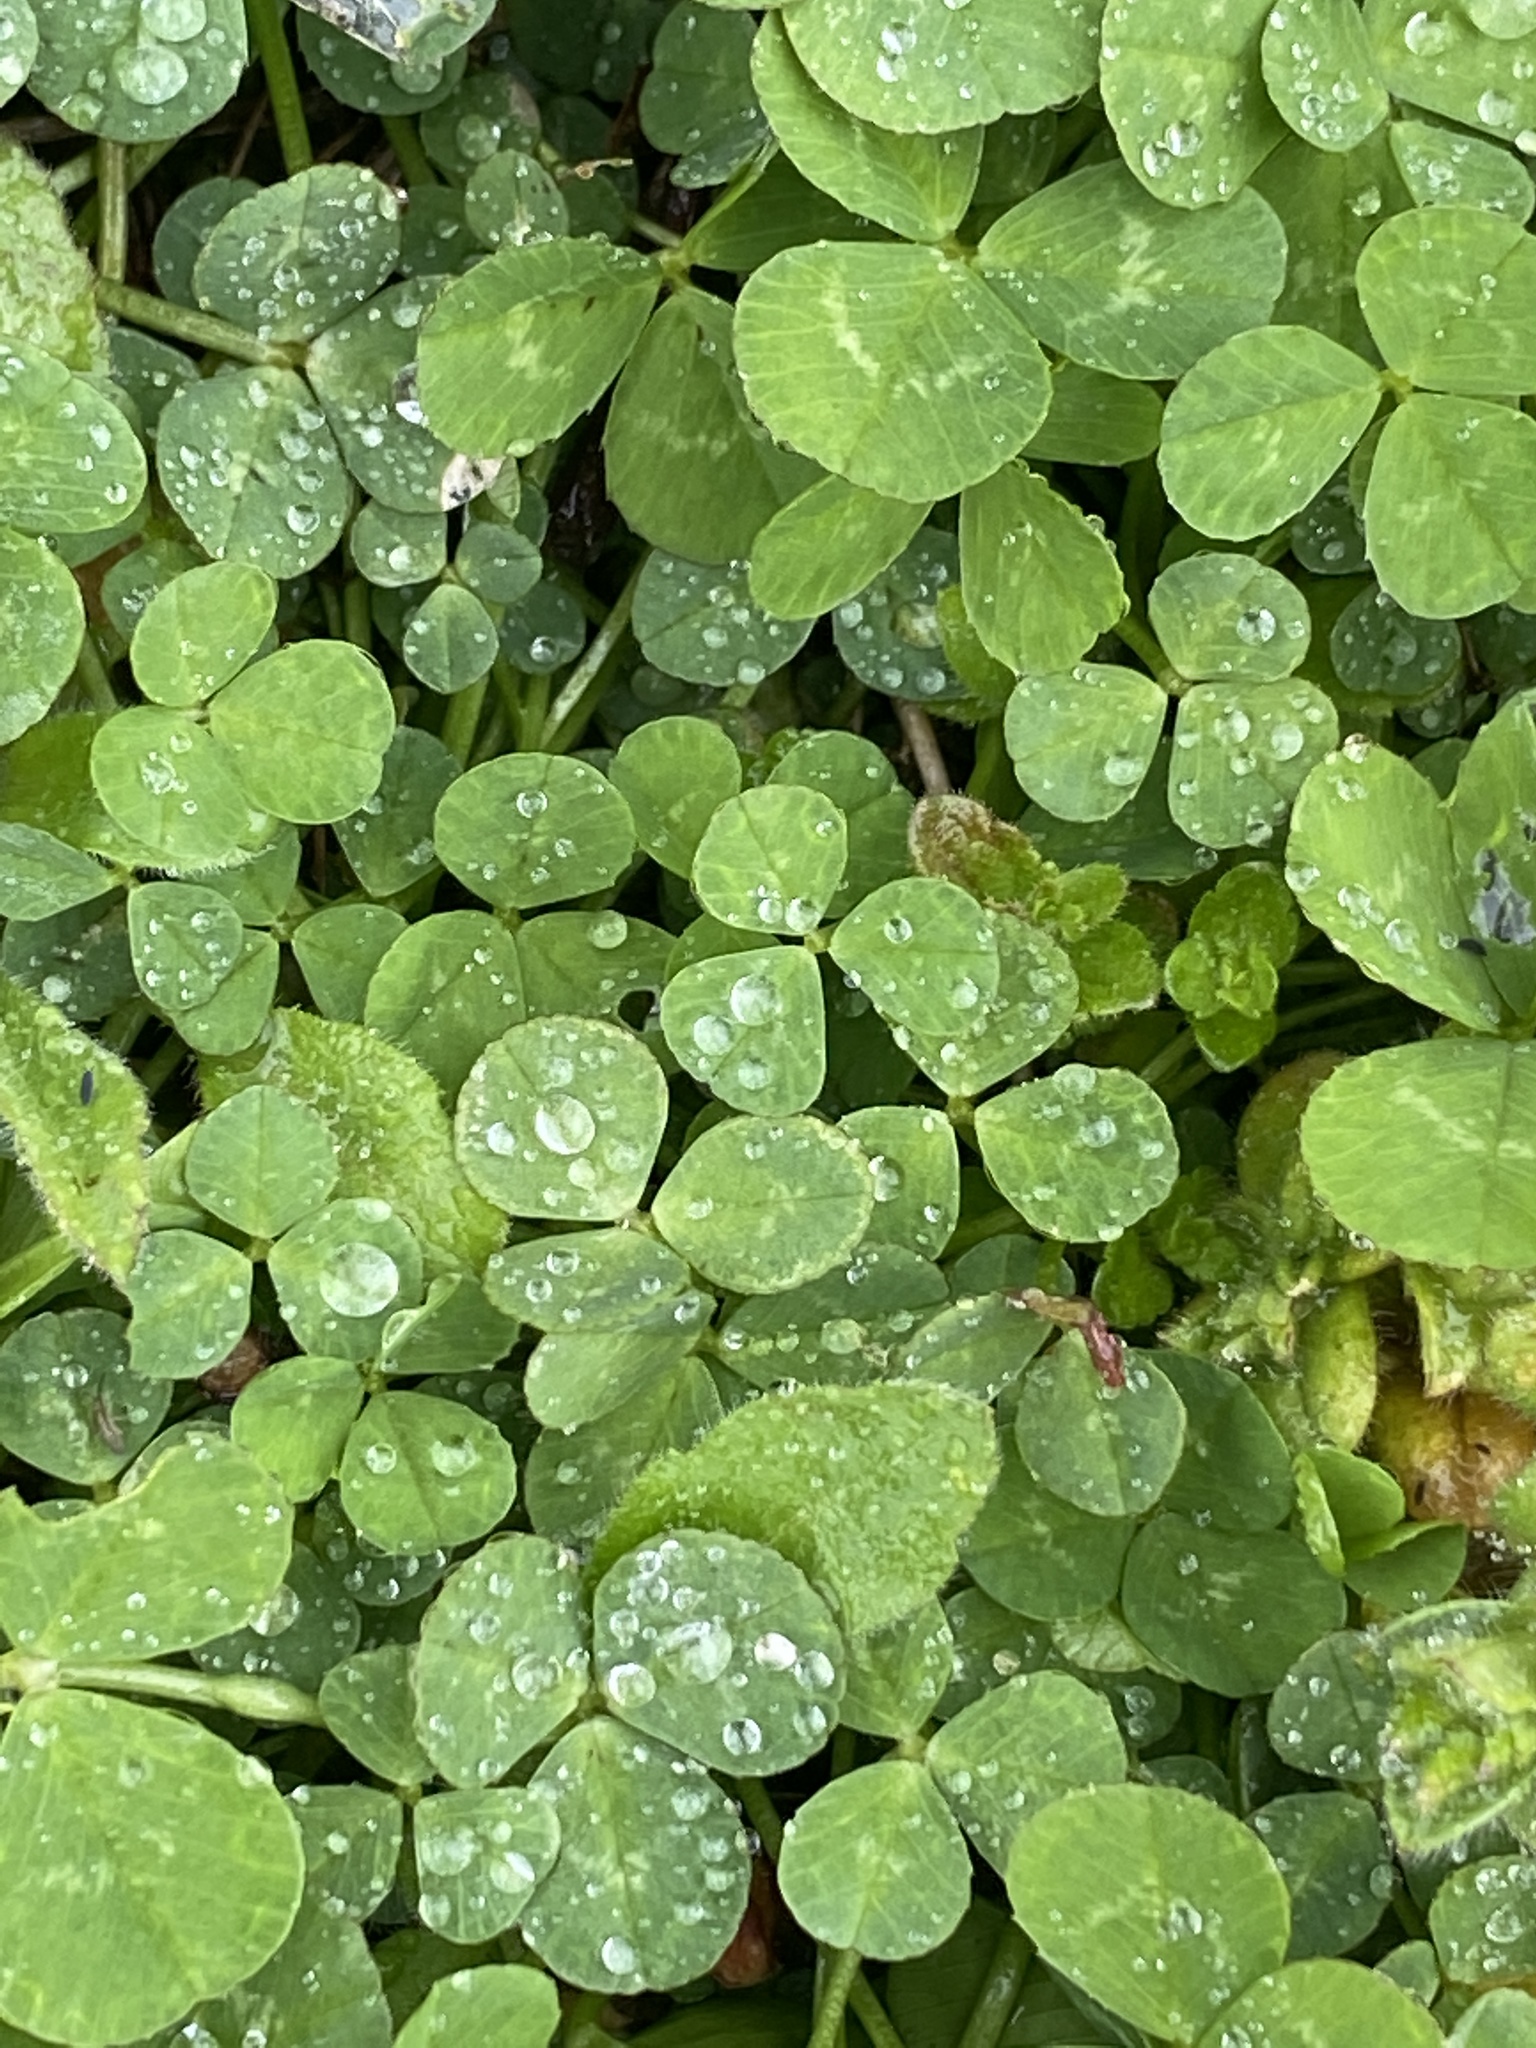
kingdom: Plantae
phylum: Tracheophyta
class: Magnoliopsida
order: Fabales
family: Fabaceae
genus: Trifolium
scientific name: Trifolium repens
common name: White clover
